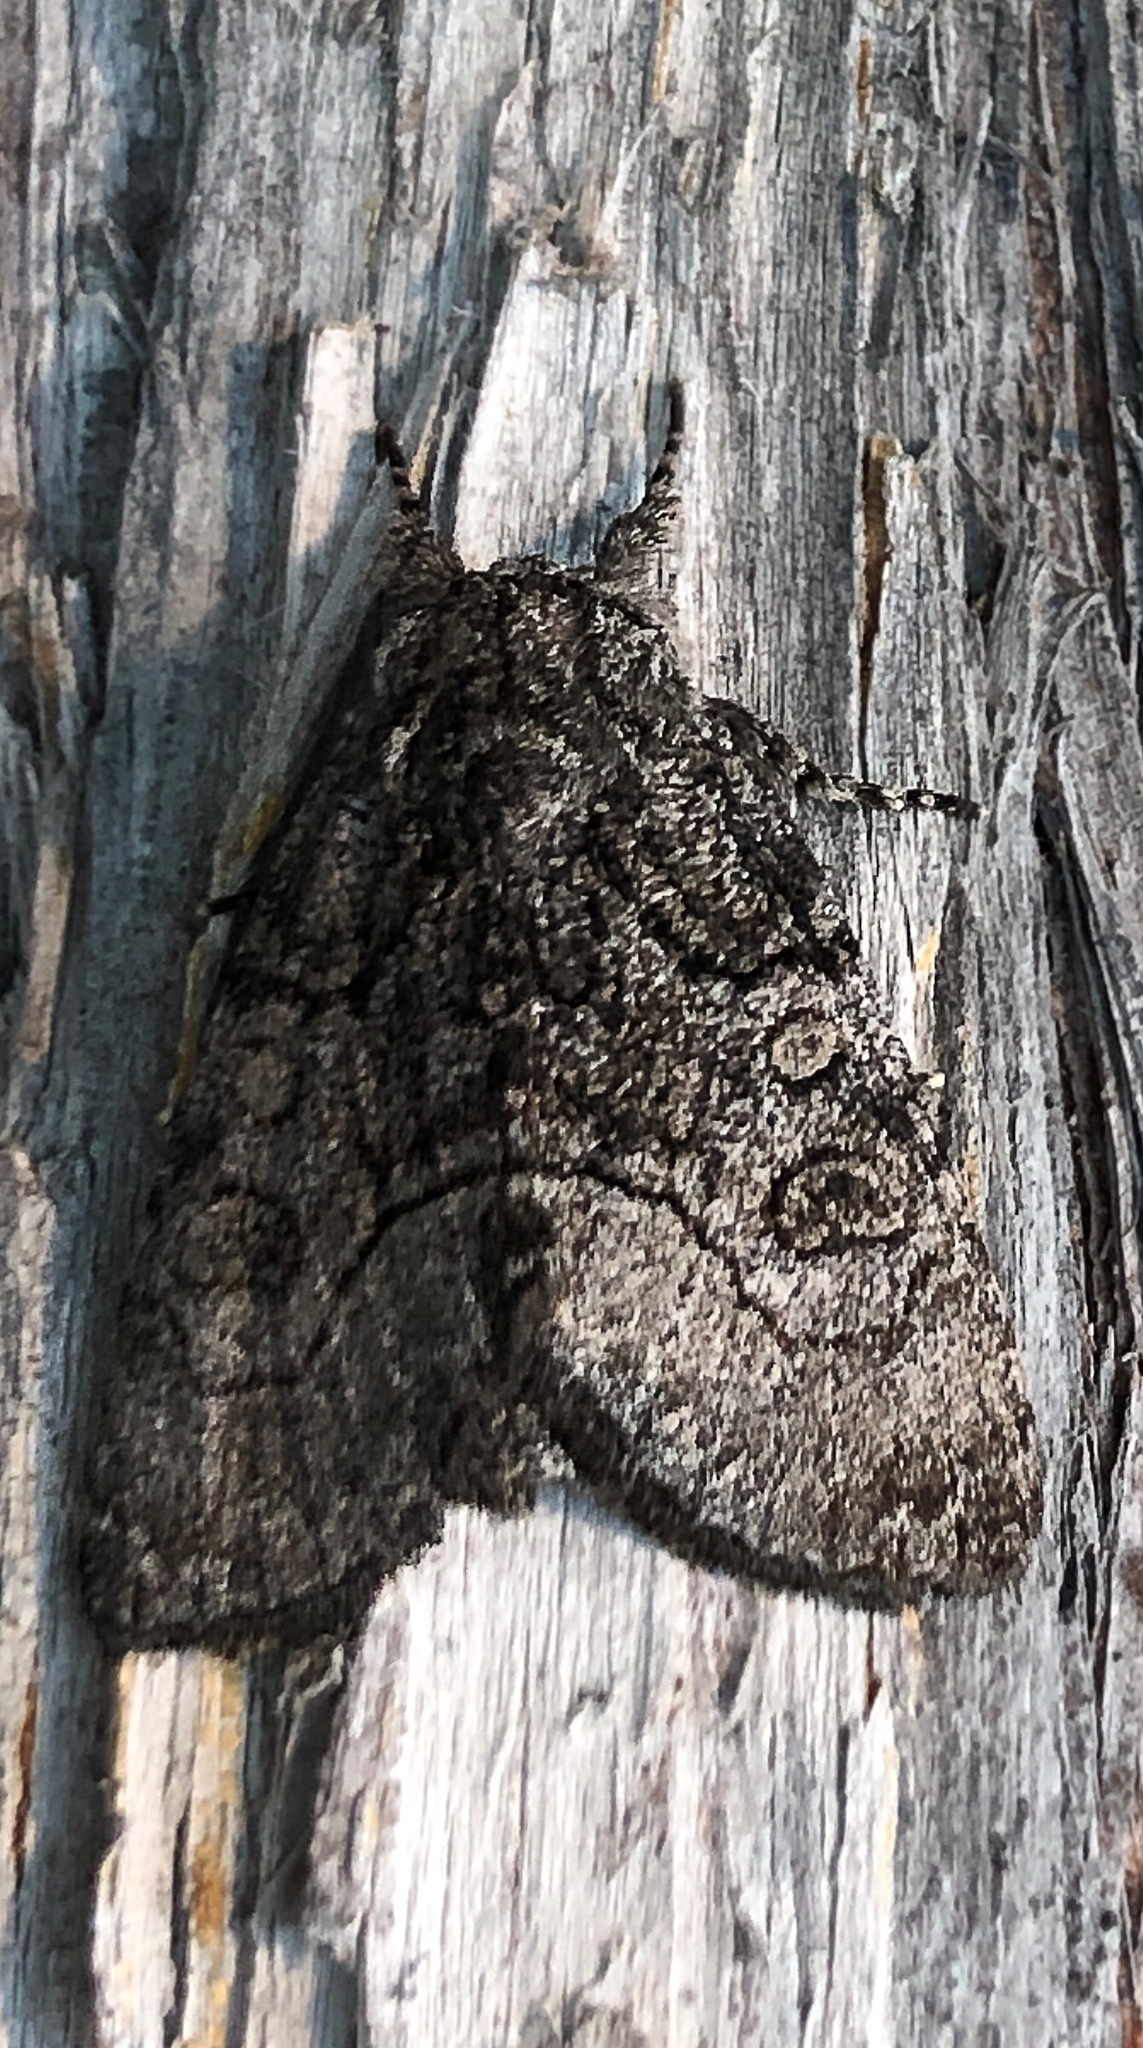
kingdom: Animalia
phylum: Arthropoda
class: Insecta
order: Lepidoptera
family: Noctuidae
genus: Raphia
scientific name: Raphia frater
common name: Brother
